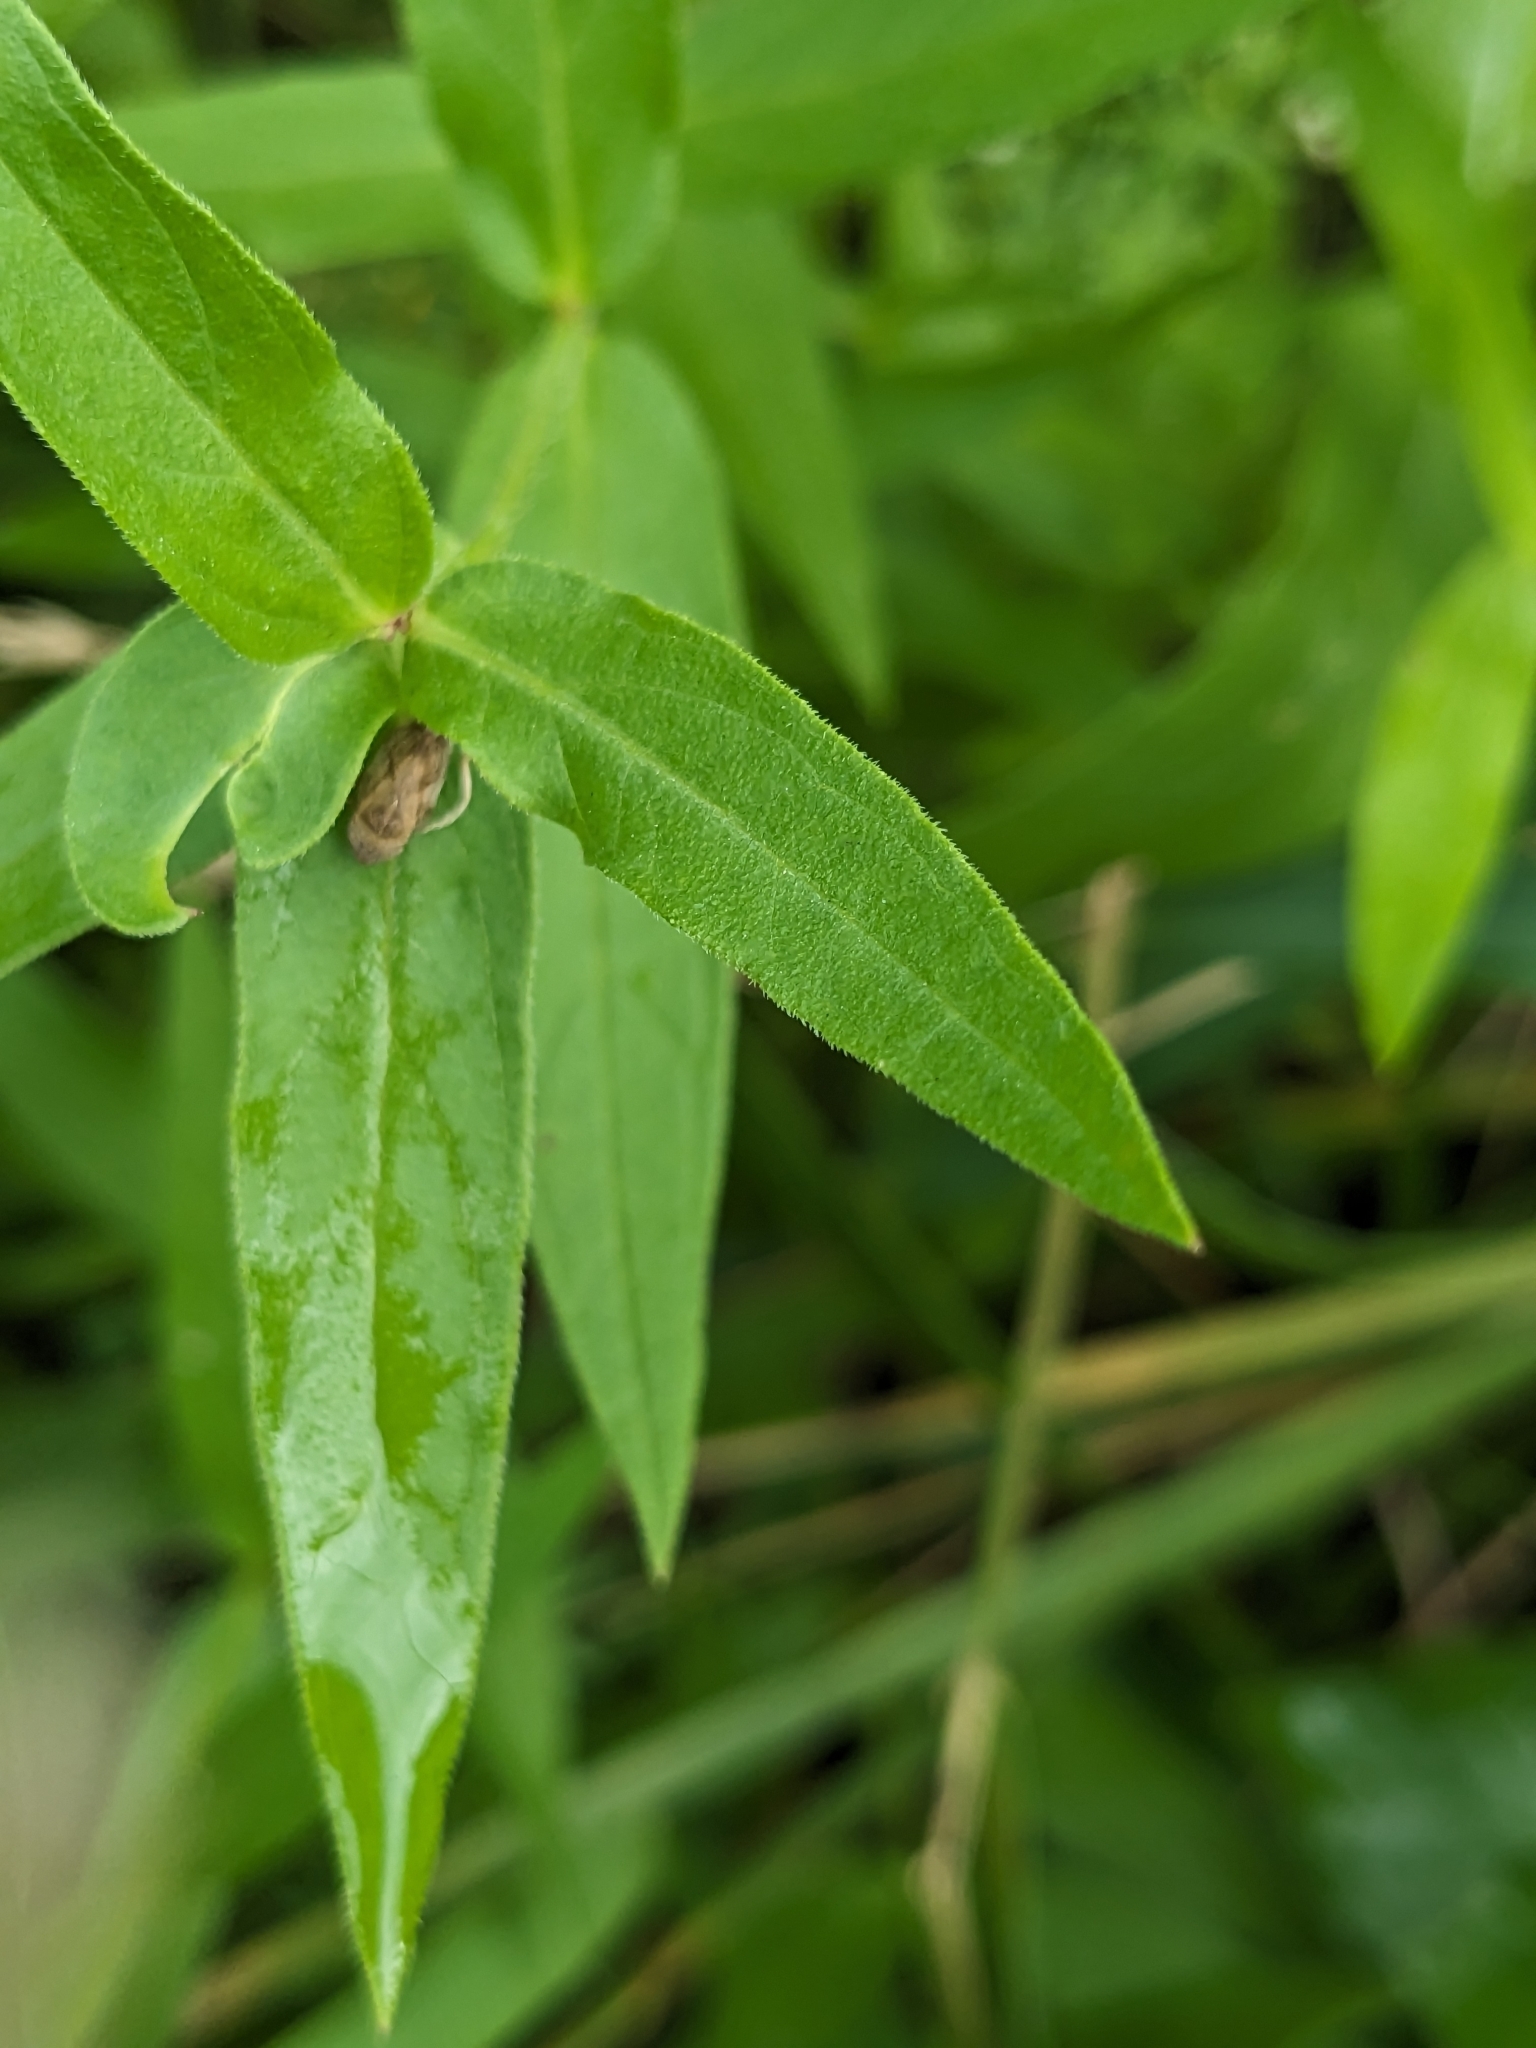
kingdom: Plantae
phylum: Tracheophyta
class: Magnoliopsida
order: Myrtales
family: Lythraceae
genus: Lythrum
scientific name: Lythrum salicaria
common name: Purple loosestrife
